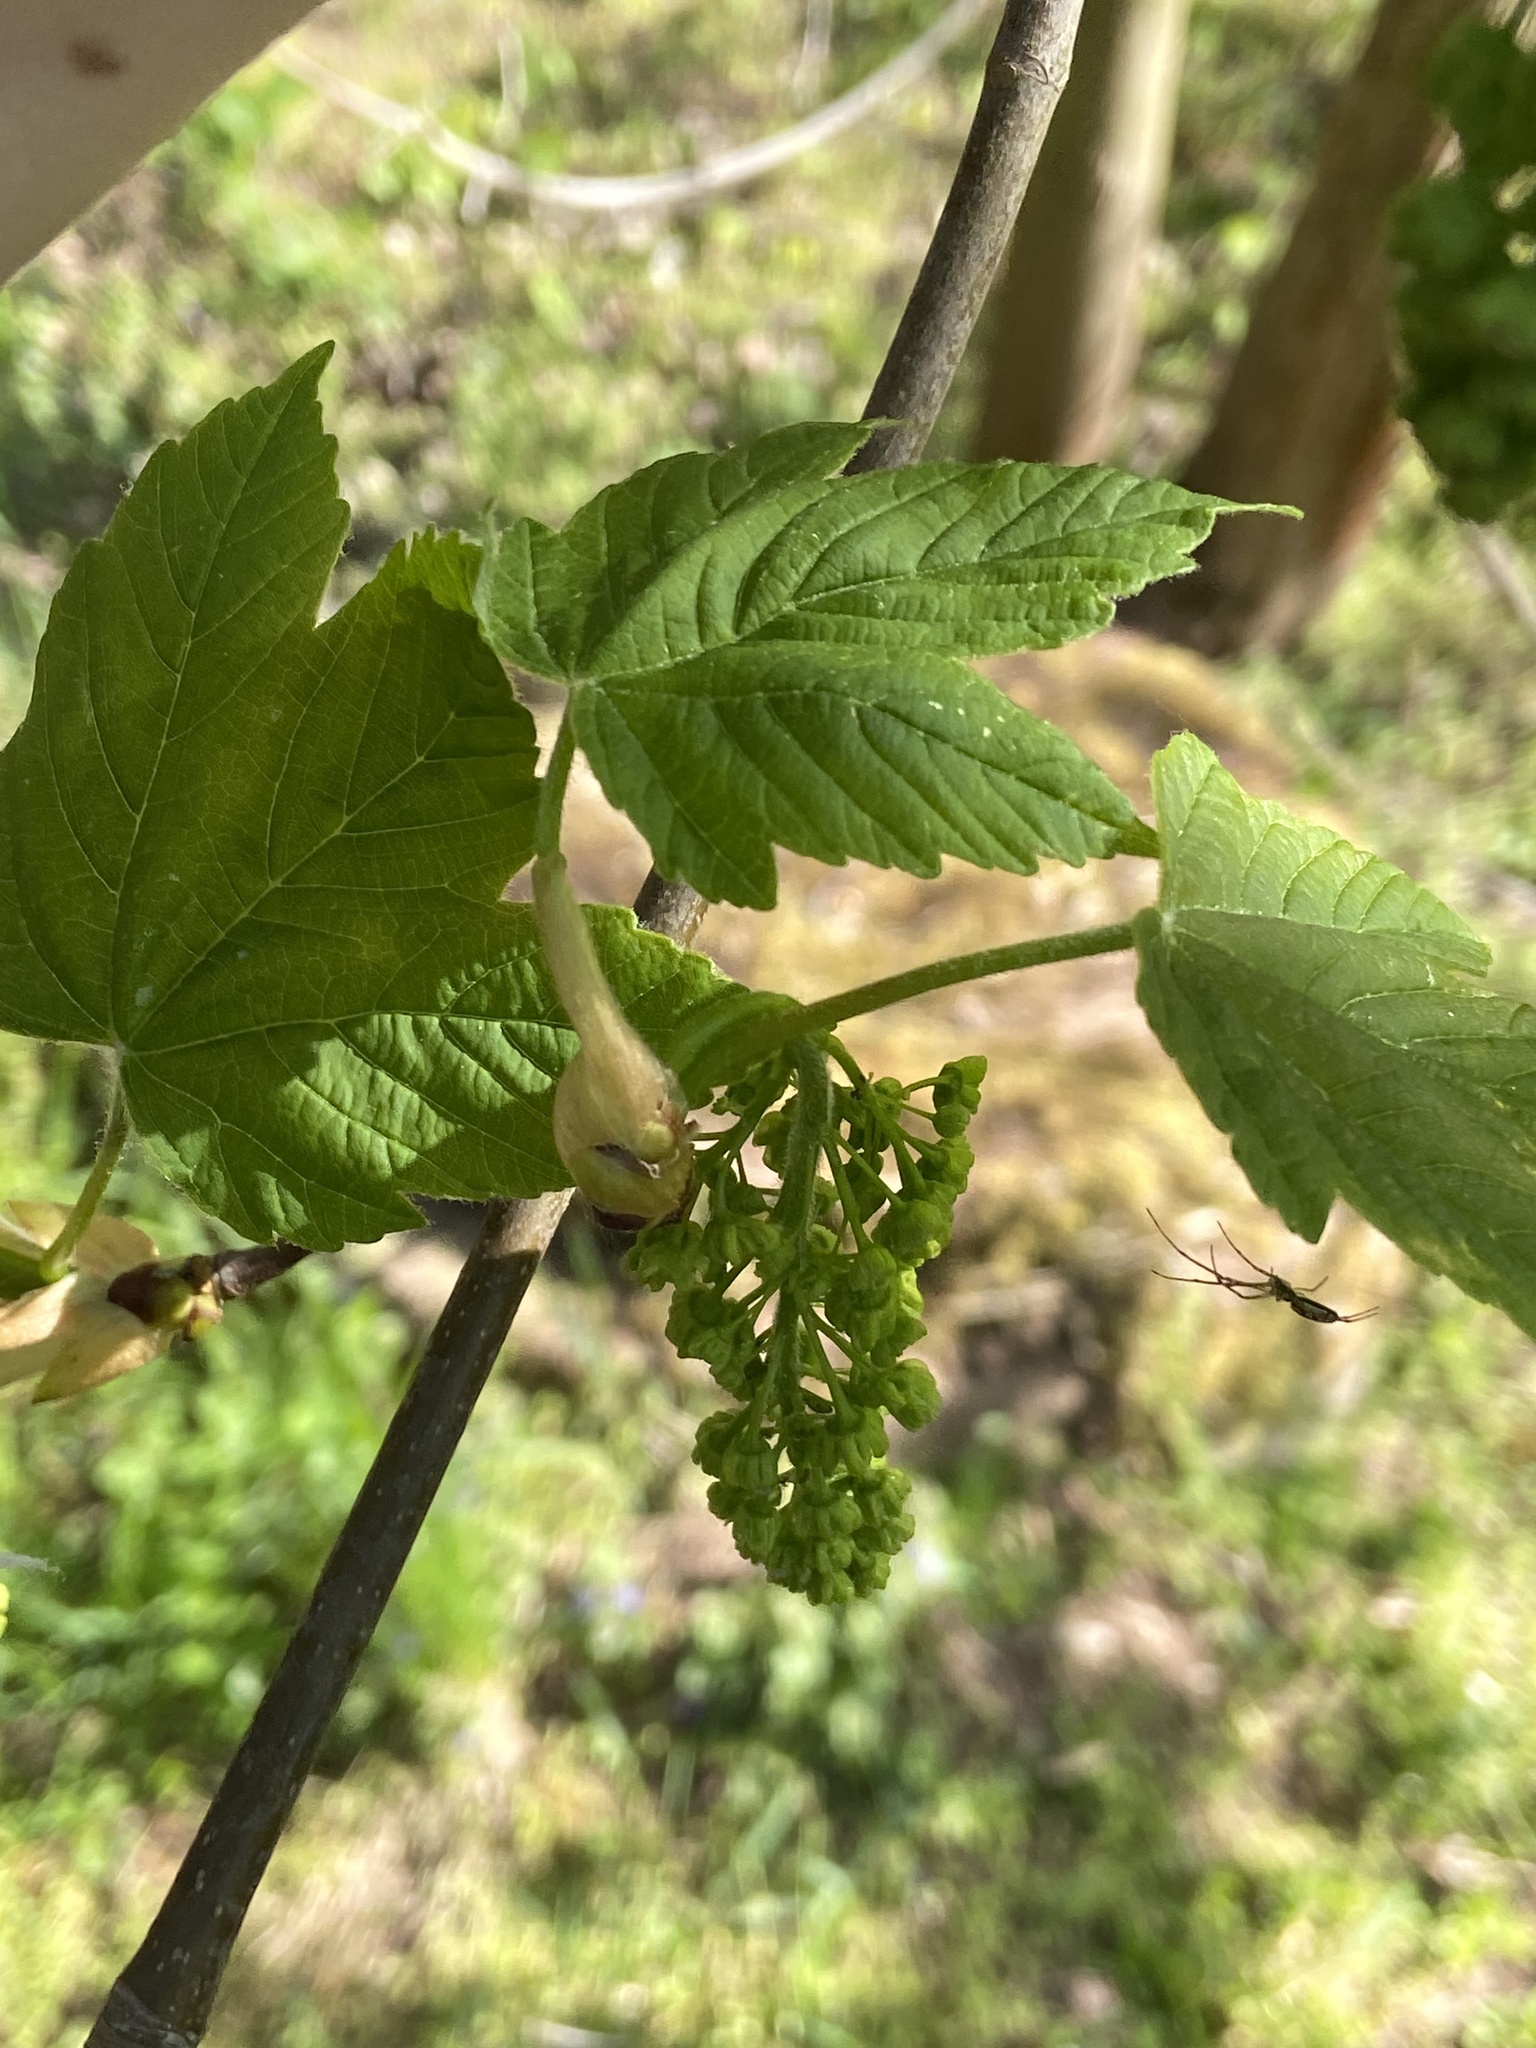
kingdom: Plantae
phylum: Tracheophyta
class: Magnoliopsida
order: Sapindales
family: Sapindaceae
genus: Acer
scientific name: Acer pseudoplatanus
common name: Sycamore
